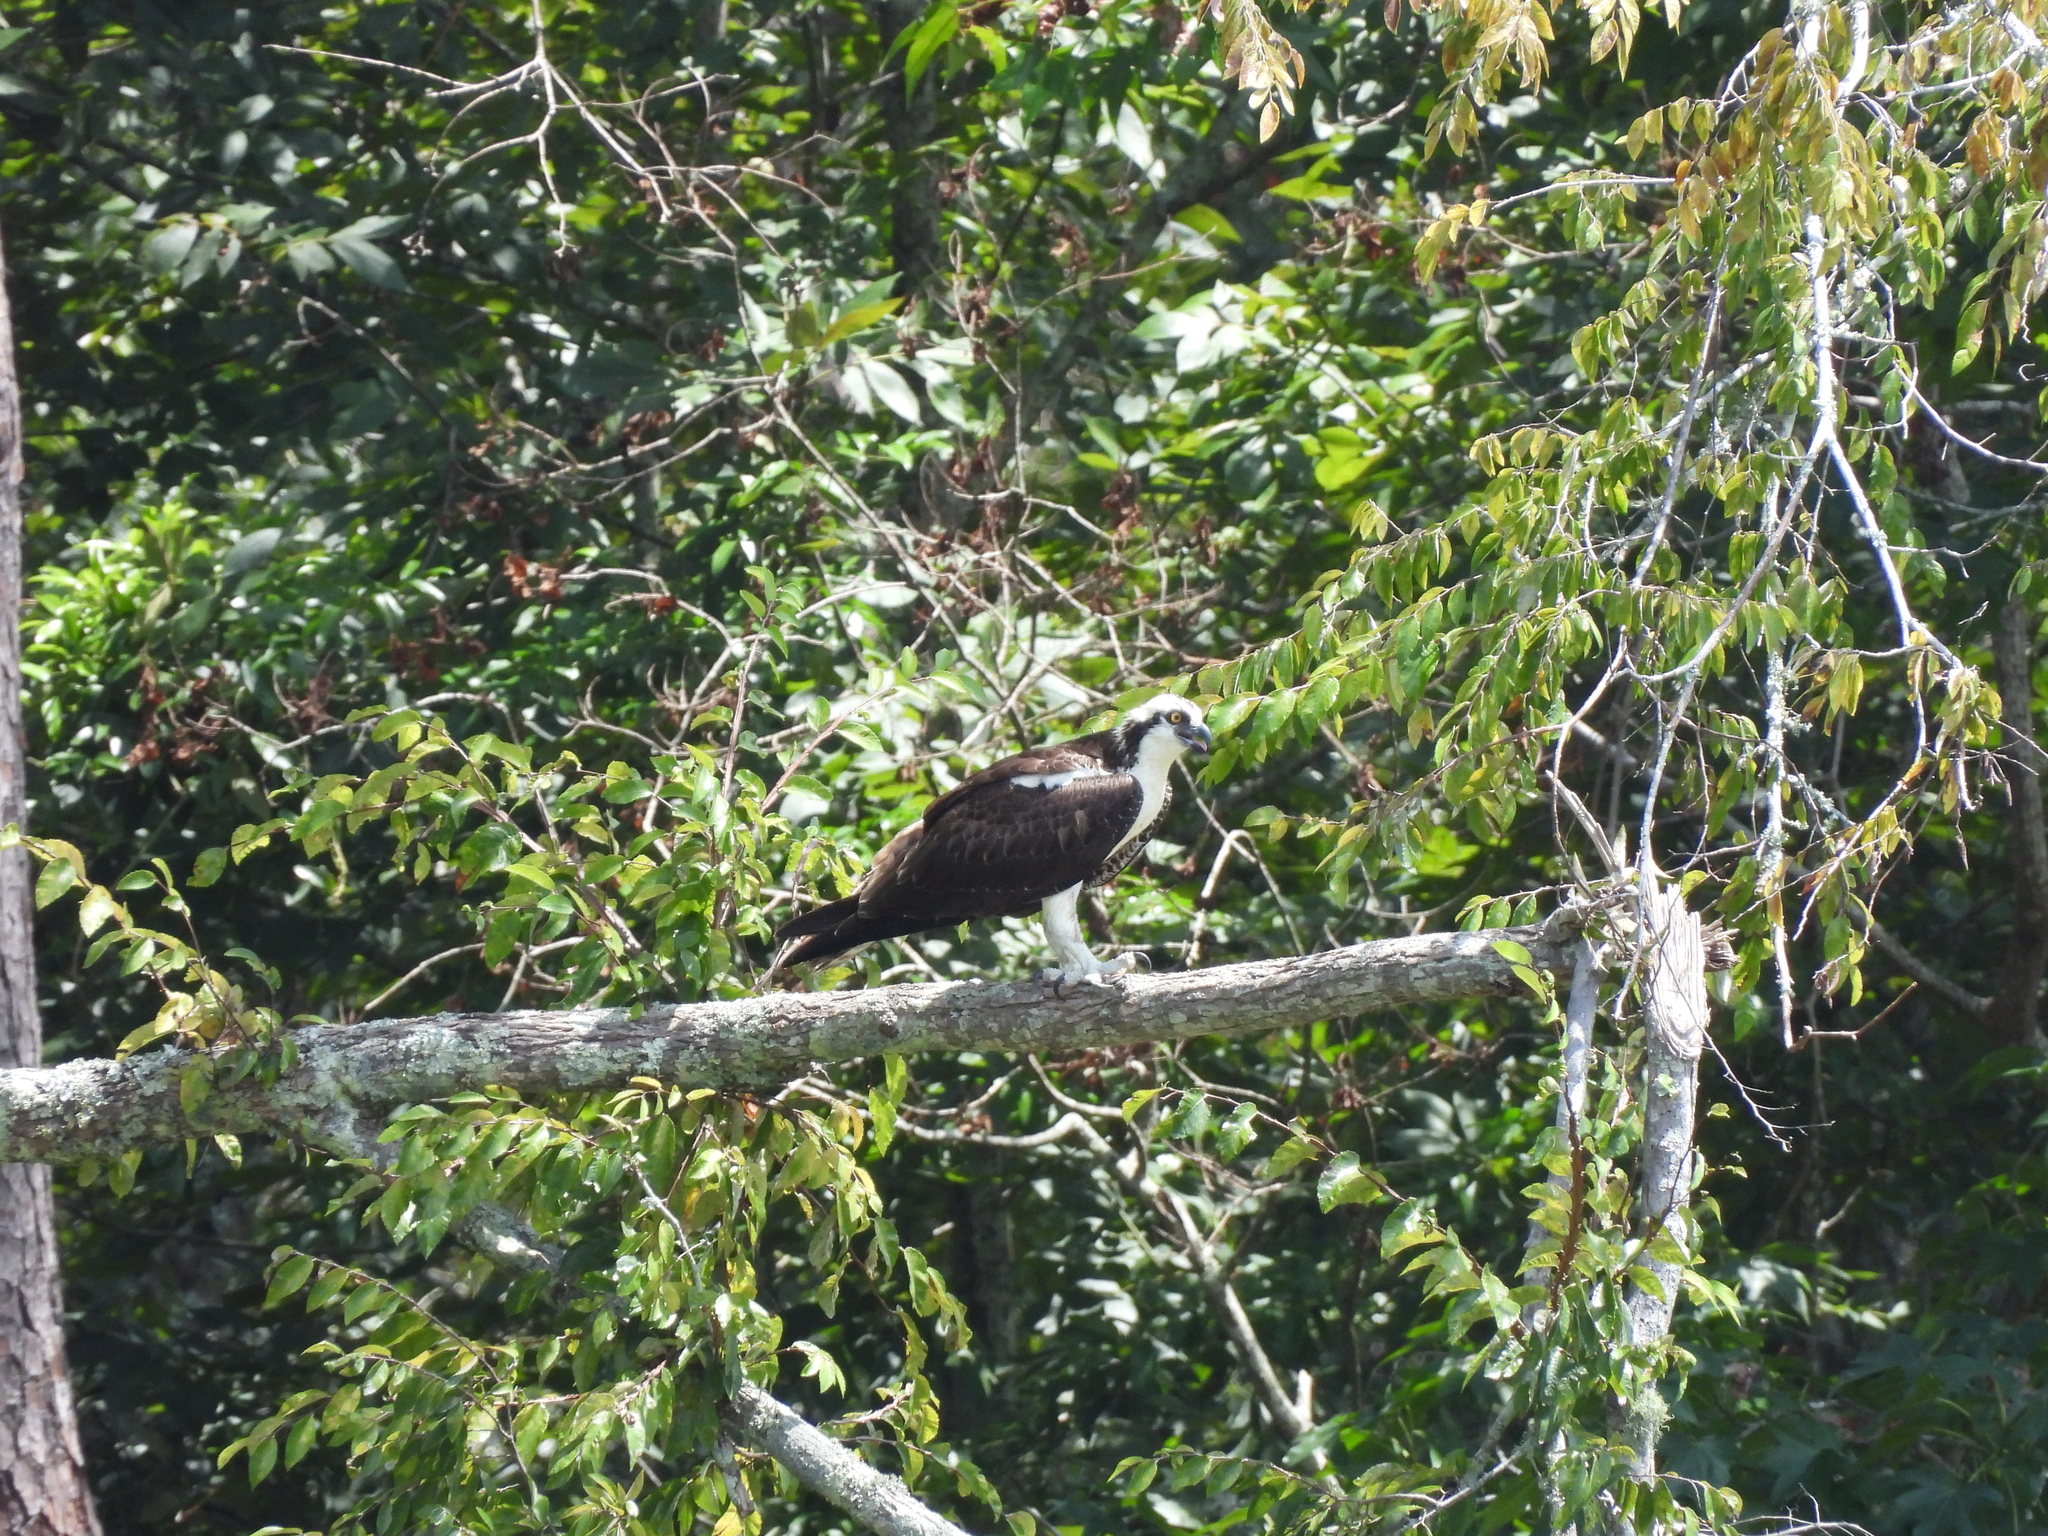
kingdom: Animalia
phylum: Chordata
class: Aves
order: Accipitriformes
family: Pandionidae
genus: Pandion
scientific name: Pandion haliaetus
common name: Osprey
